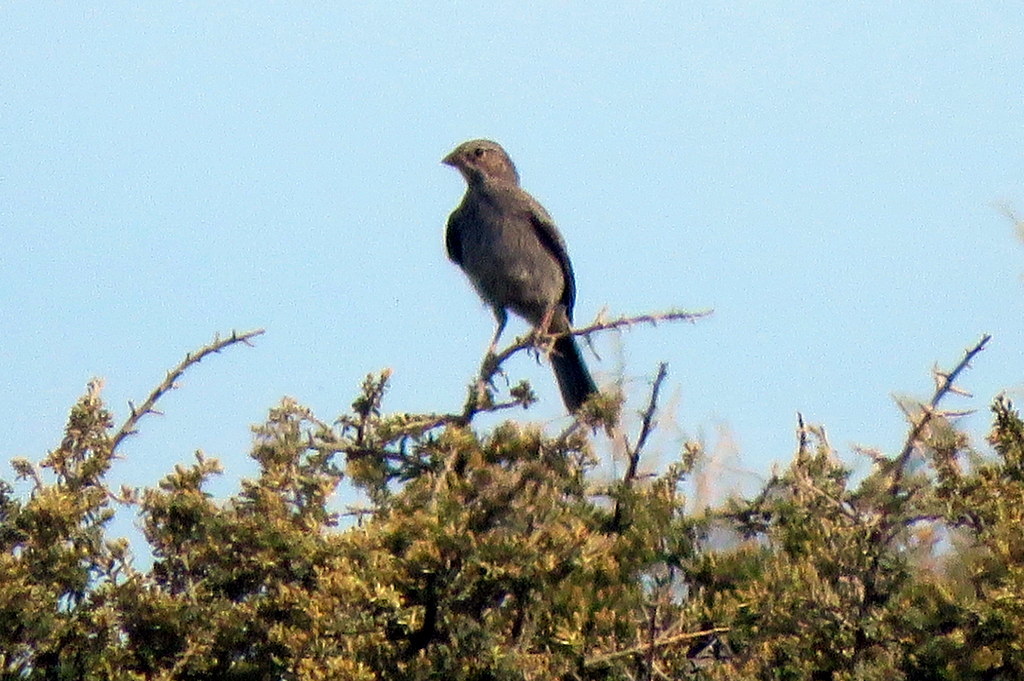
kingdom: Animalia
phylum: Chordata
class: Aves
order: Passeriformes
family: Thraupidae
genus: Rhopospina
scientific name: Rhopospina fruticeti
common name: Mourning sierra finch
